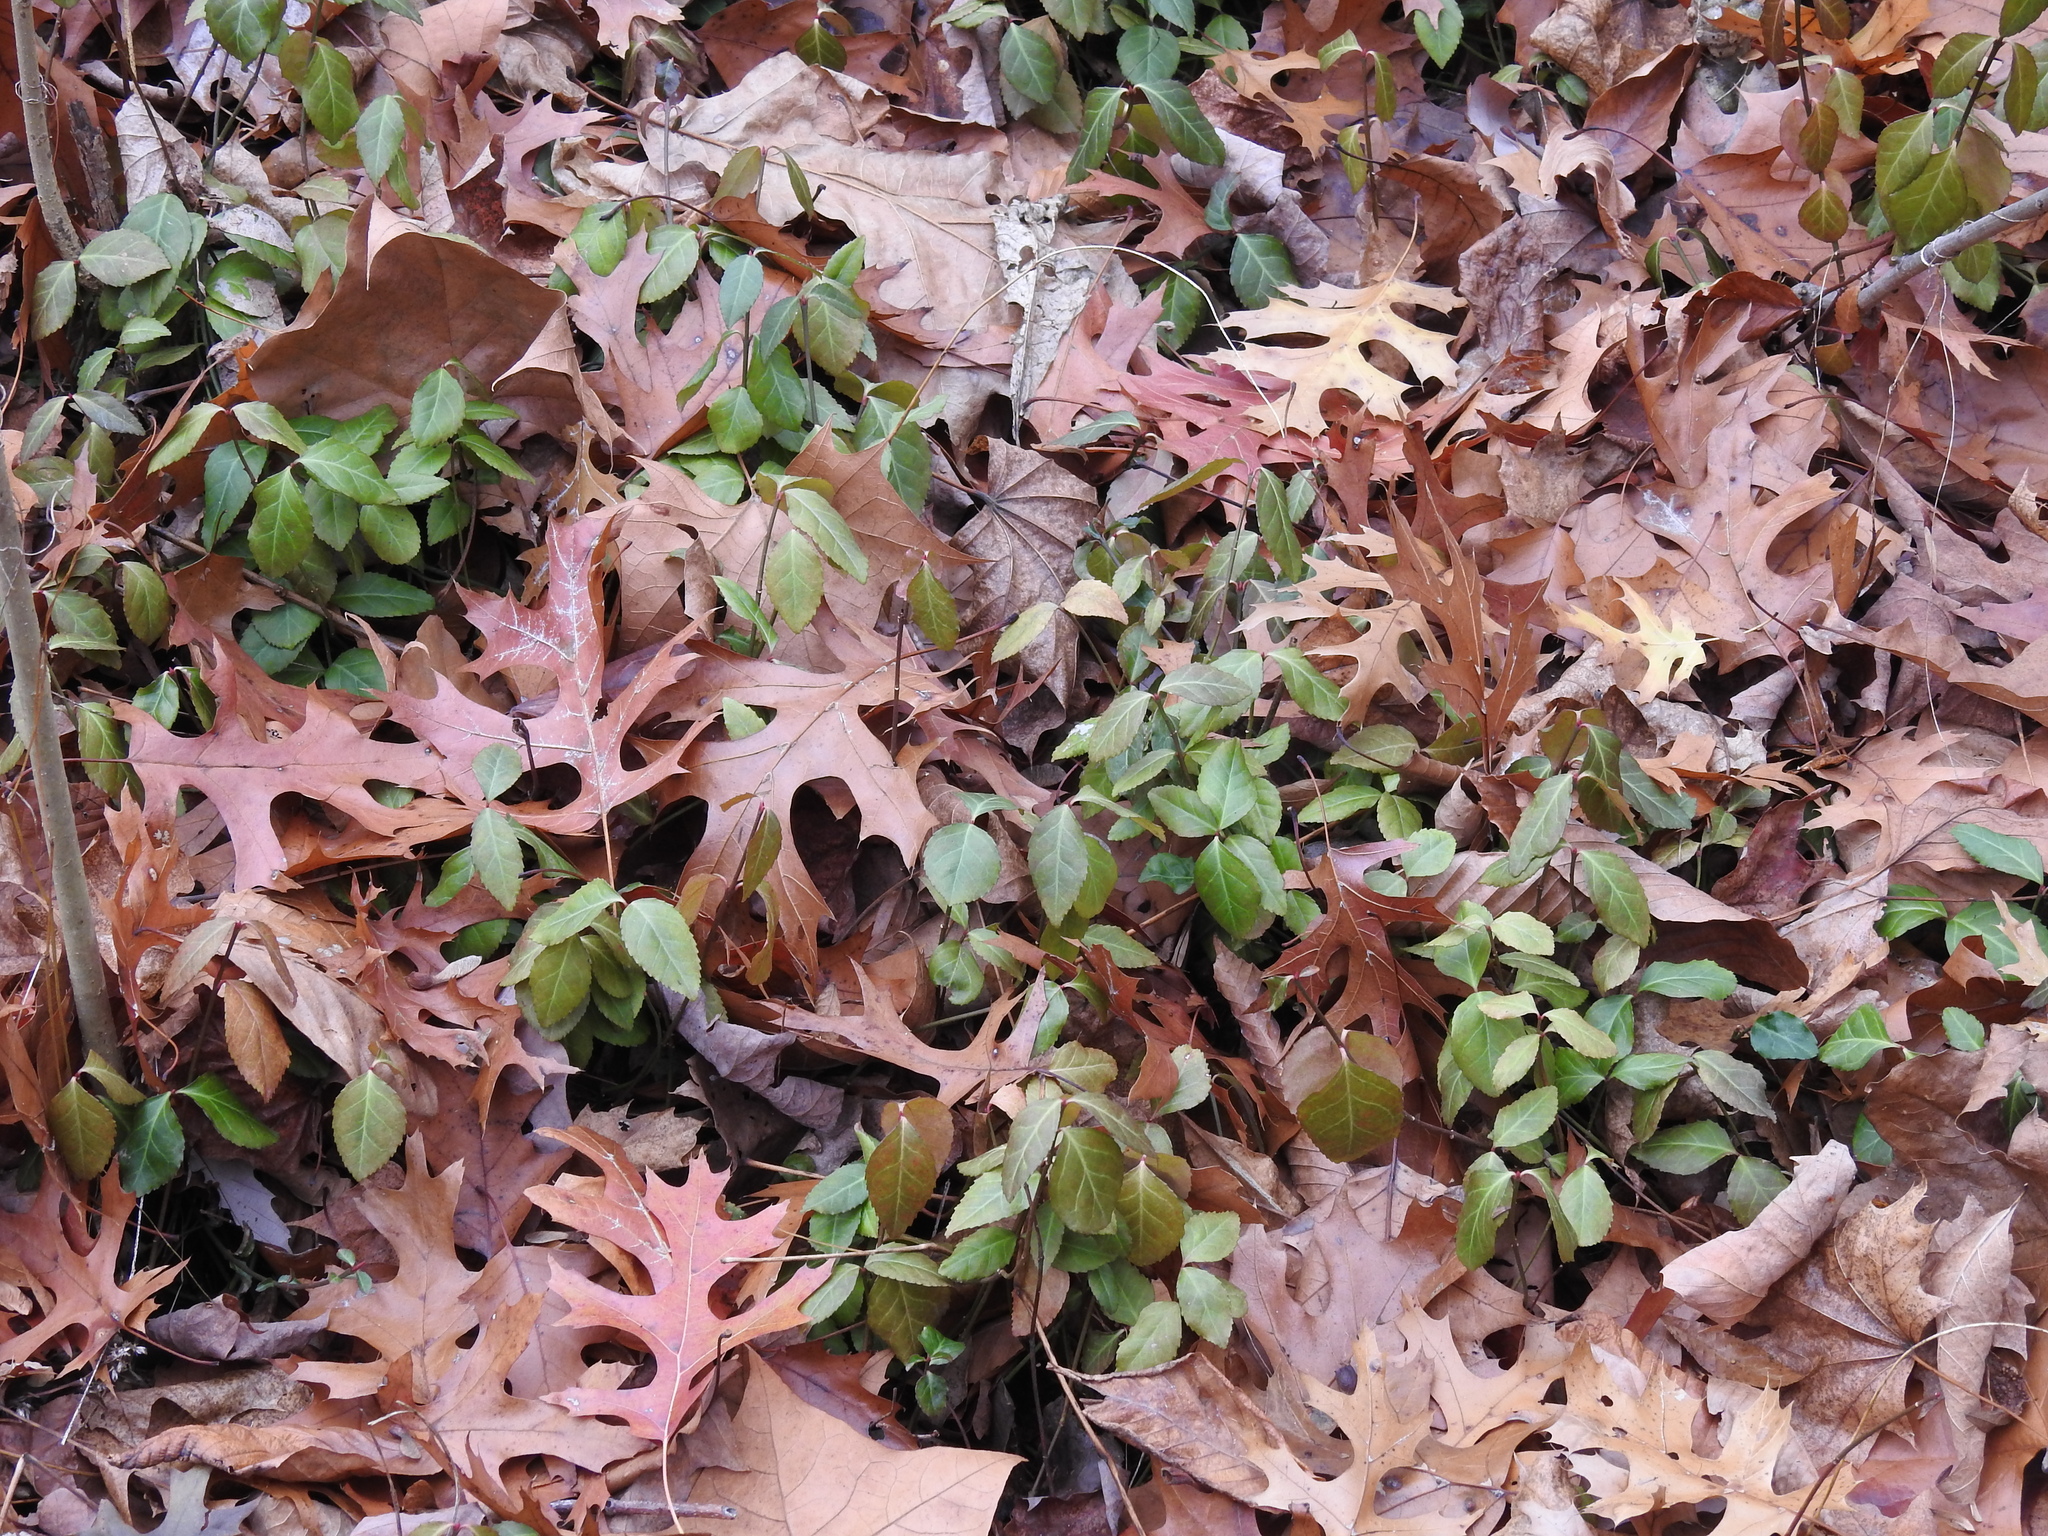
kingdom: Plantae
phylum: Tracheophyta
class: Magnoliopsida
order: Celastrales
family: Celastraceae
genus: Euonymus
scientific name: Euonymus fortunei
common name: Climbing euonymus
